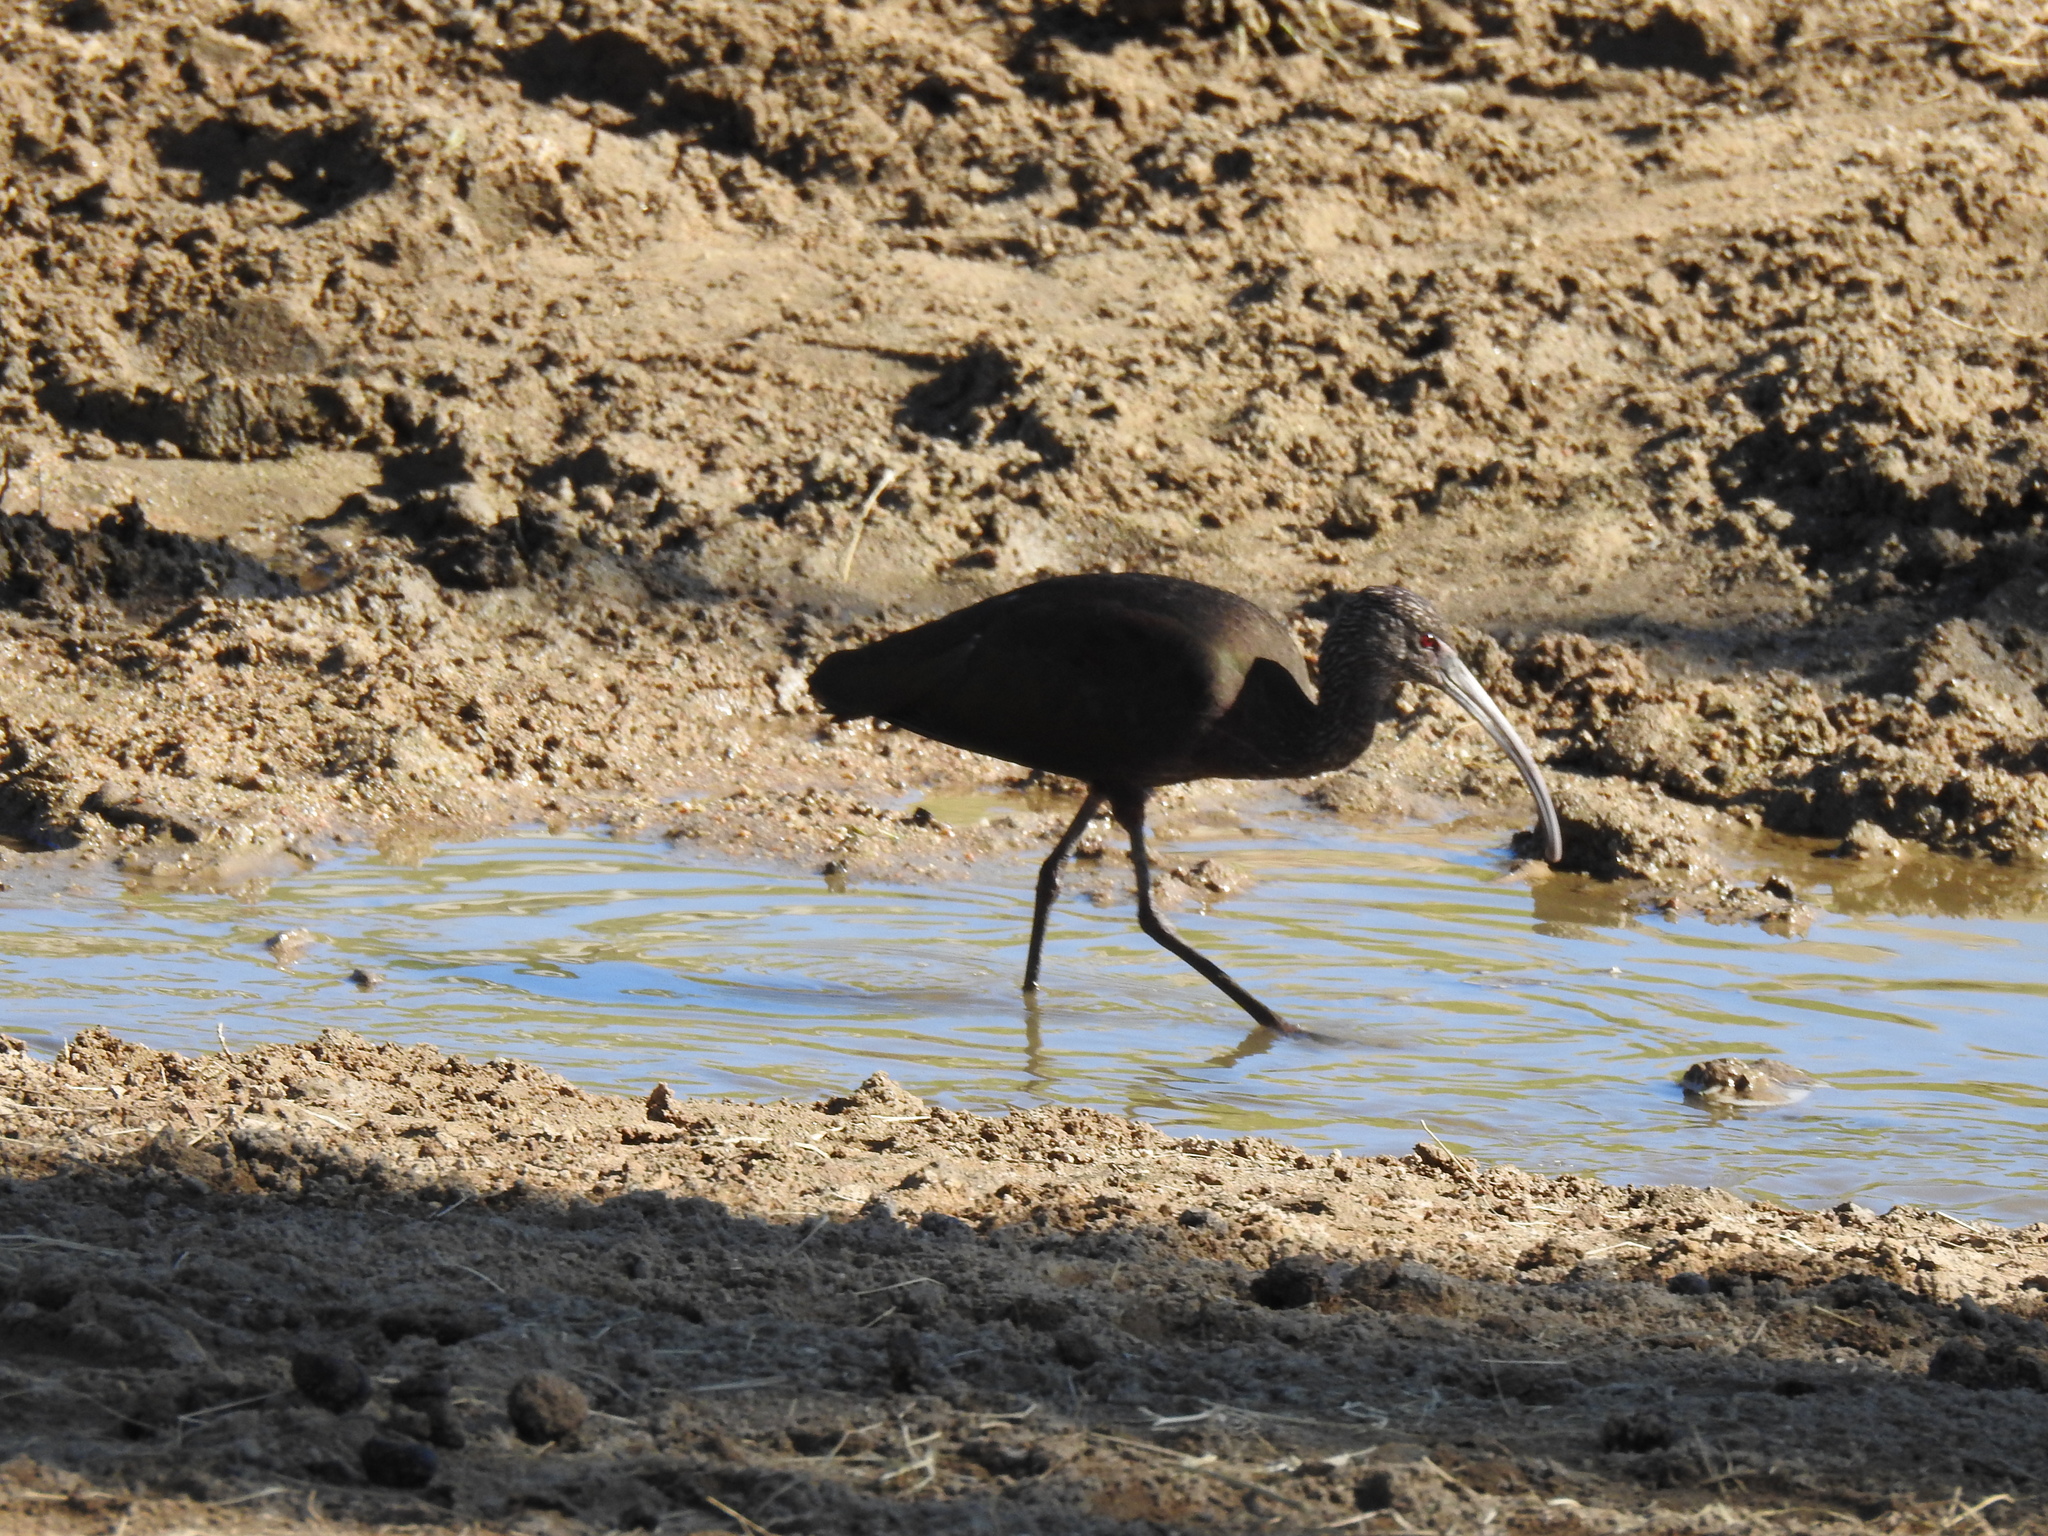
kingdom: Animalia
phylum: Chordata
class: Aves
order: Pelecaniformes
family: Threskiornithidae
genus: Plegadis
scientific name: Plegadis chihi
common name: White-faced ibis
